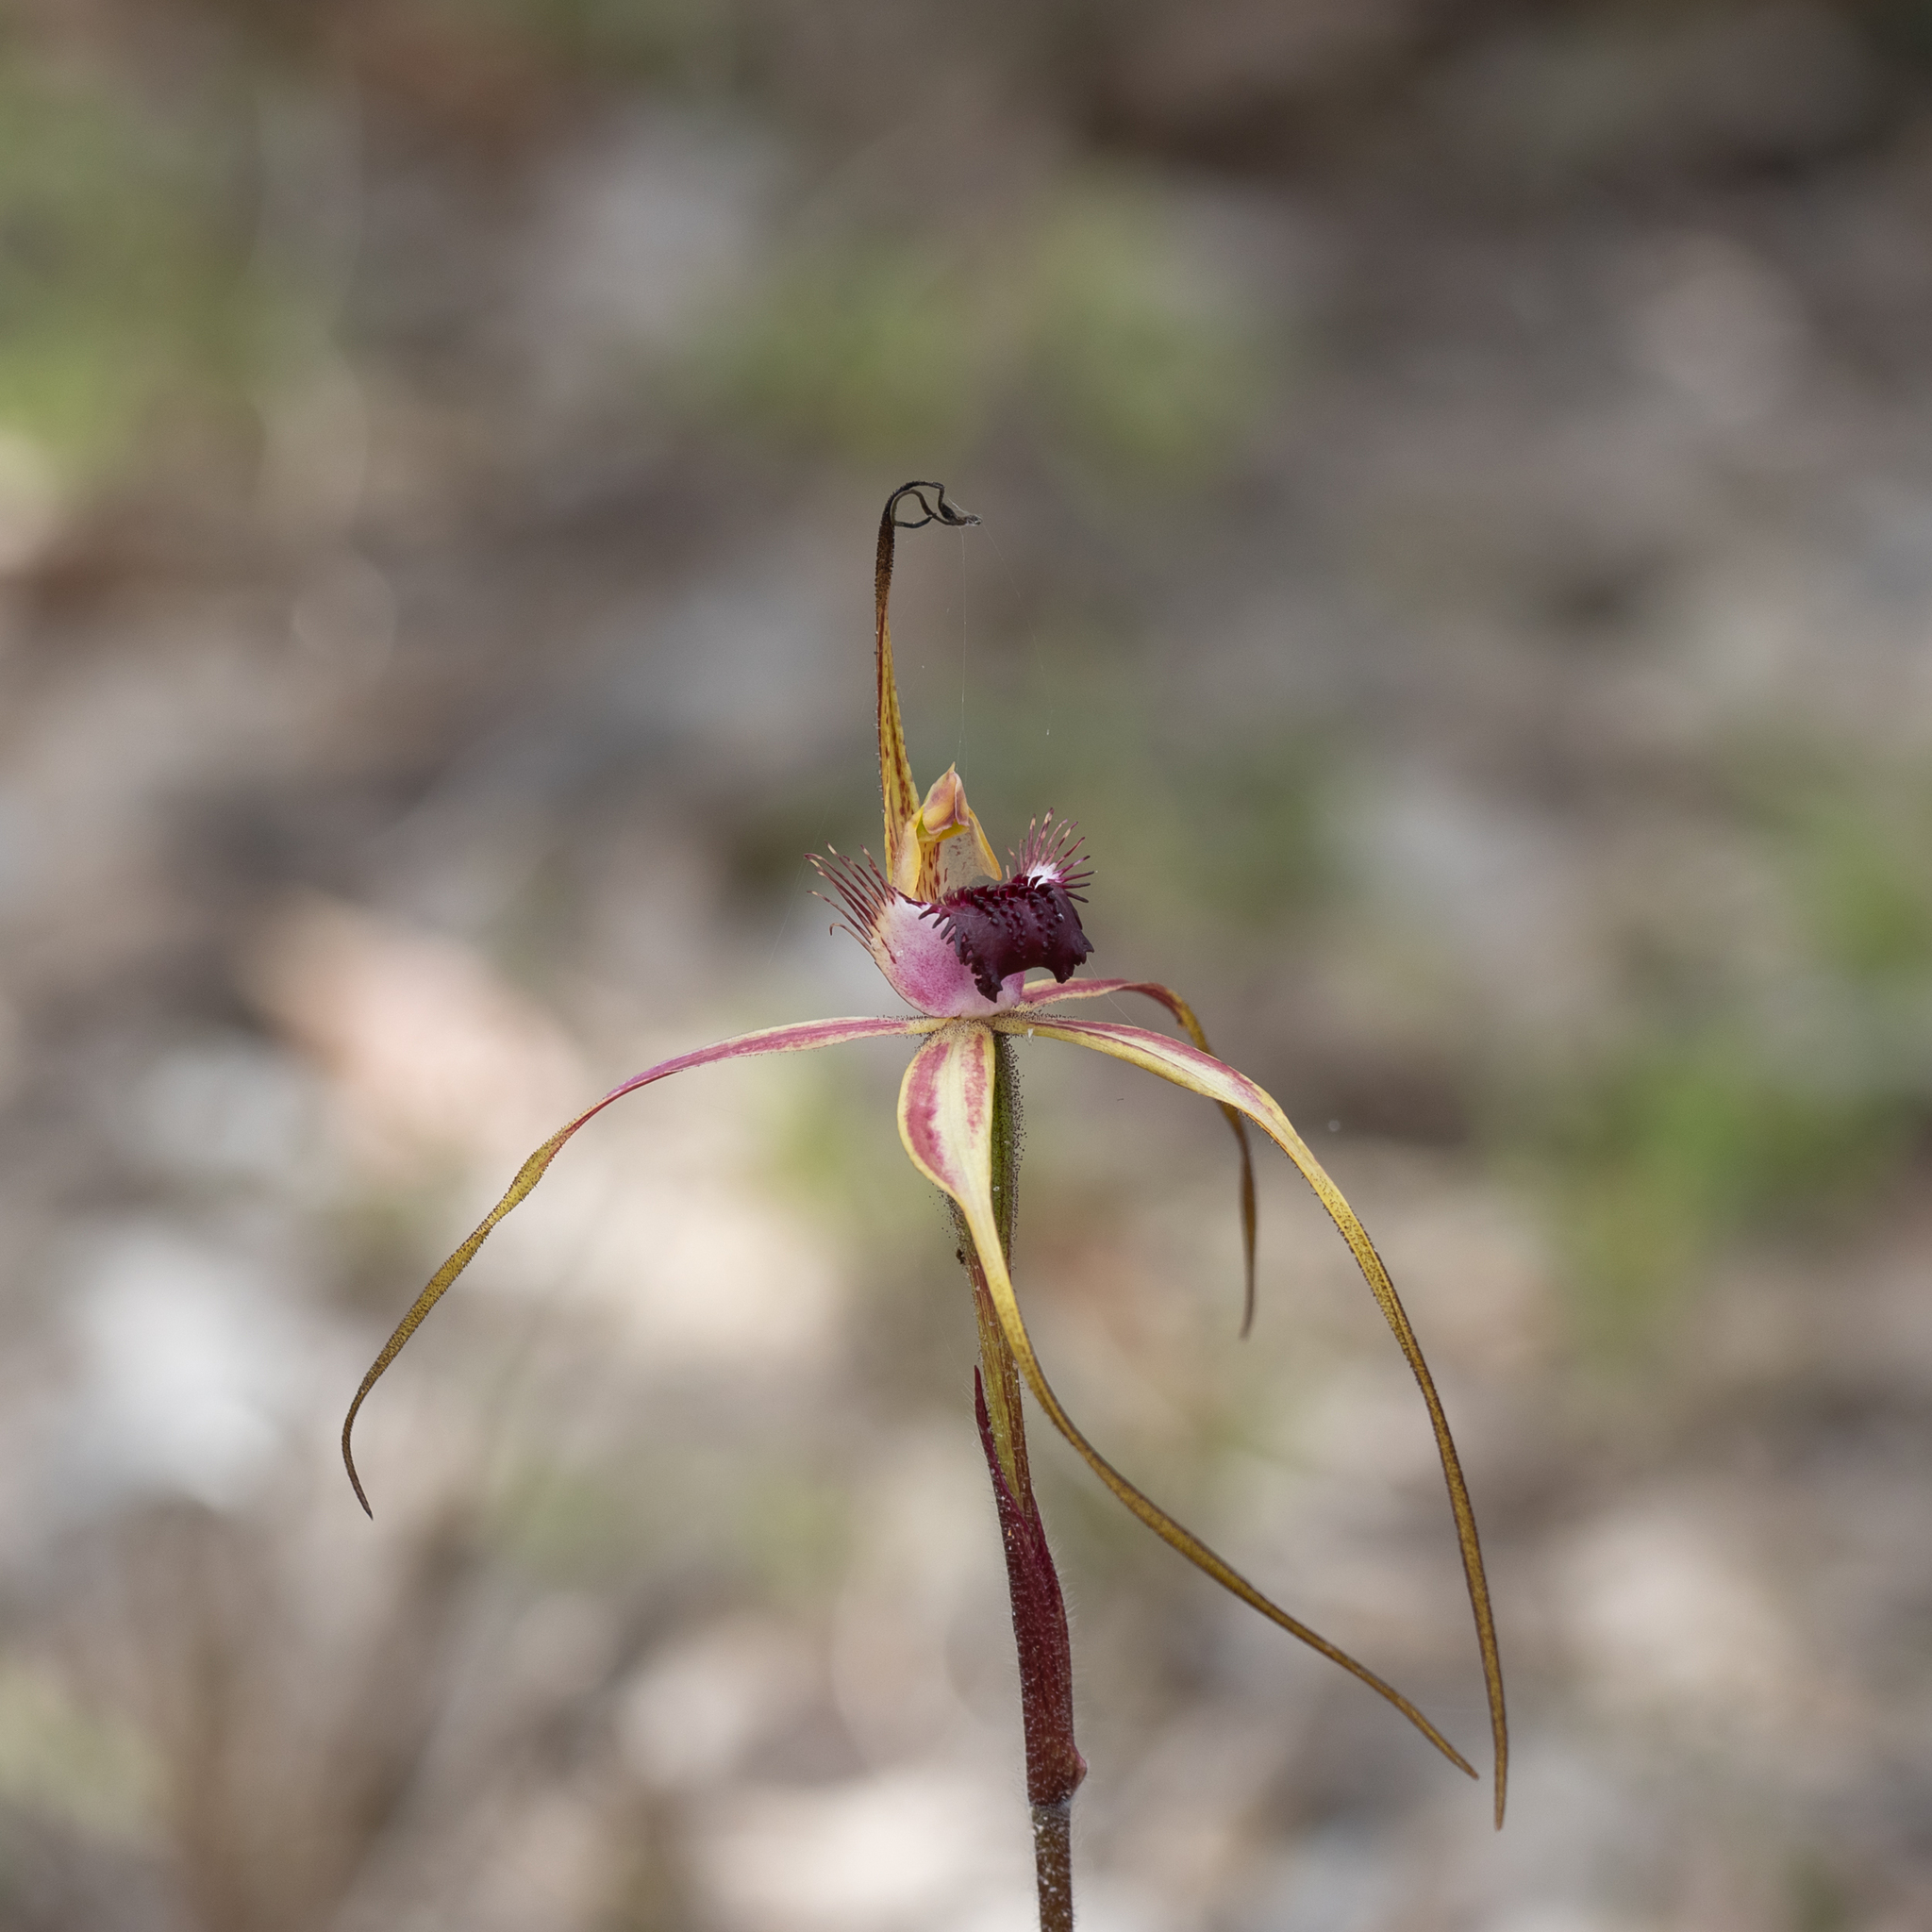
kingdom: Plantae
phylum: Tracheophyta
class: Liliopsida
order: Asparagales
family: Orchidaceae
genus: Caladenia
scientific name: Caladenia heberleana
